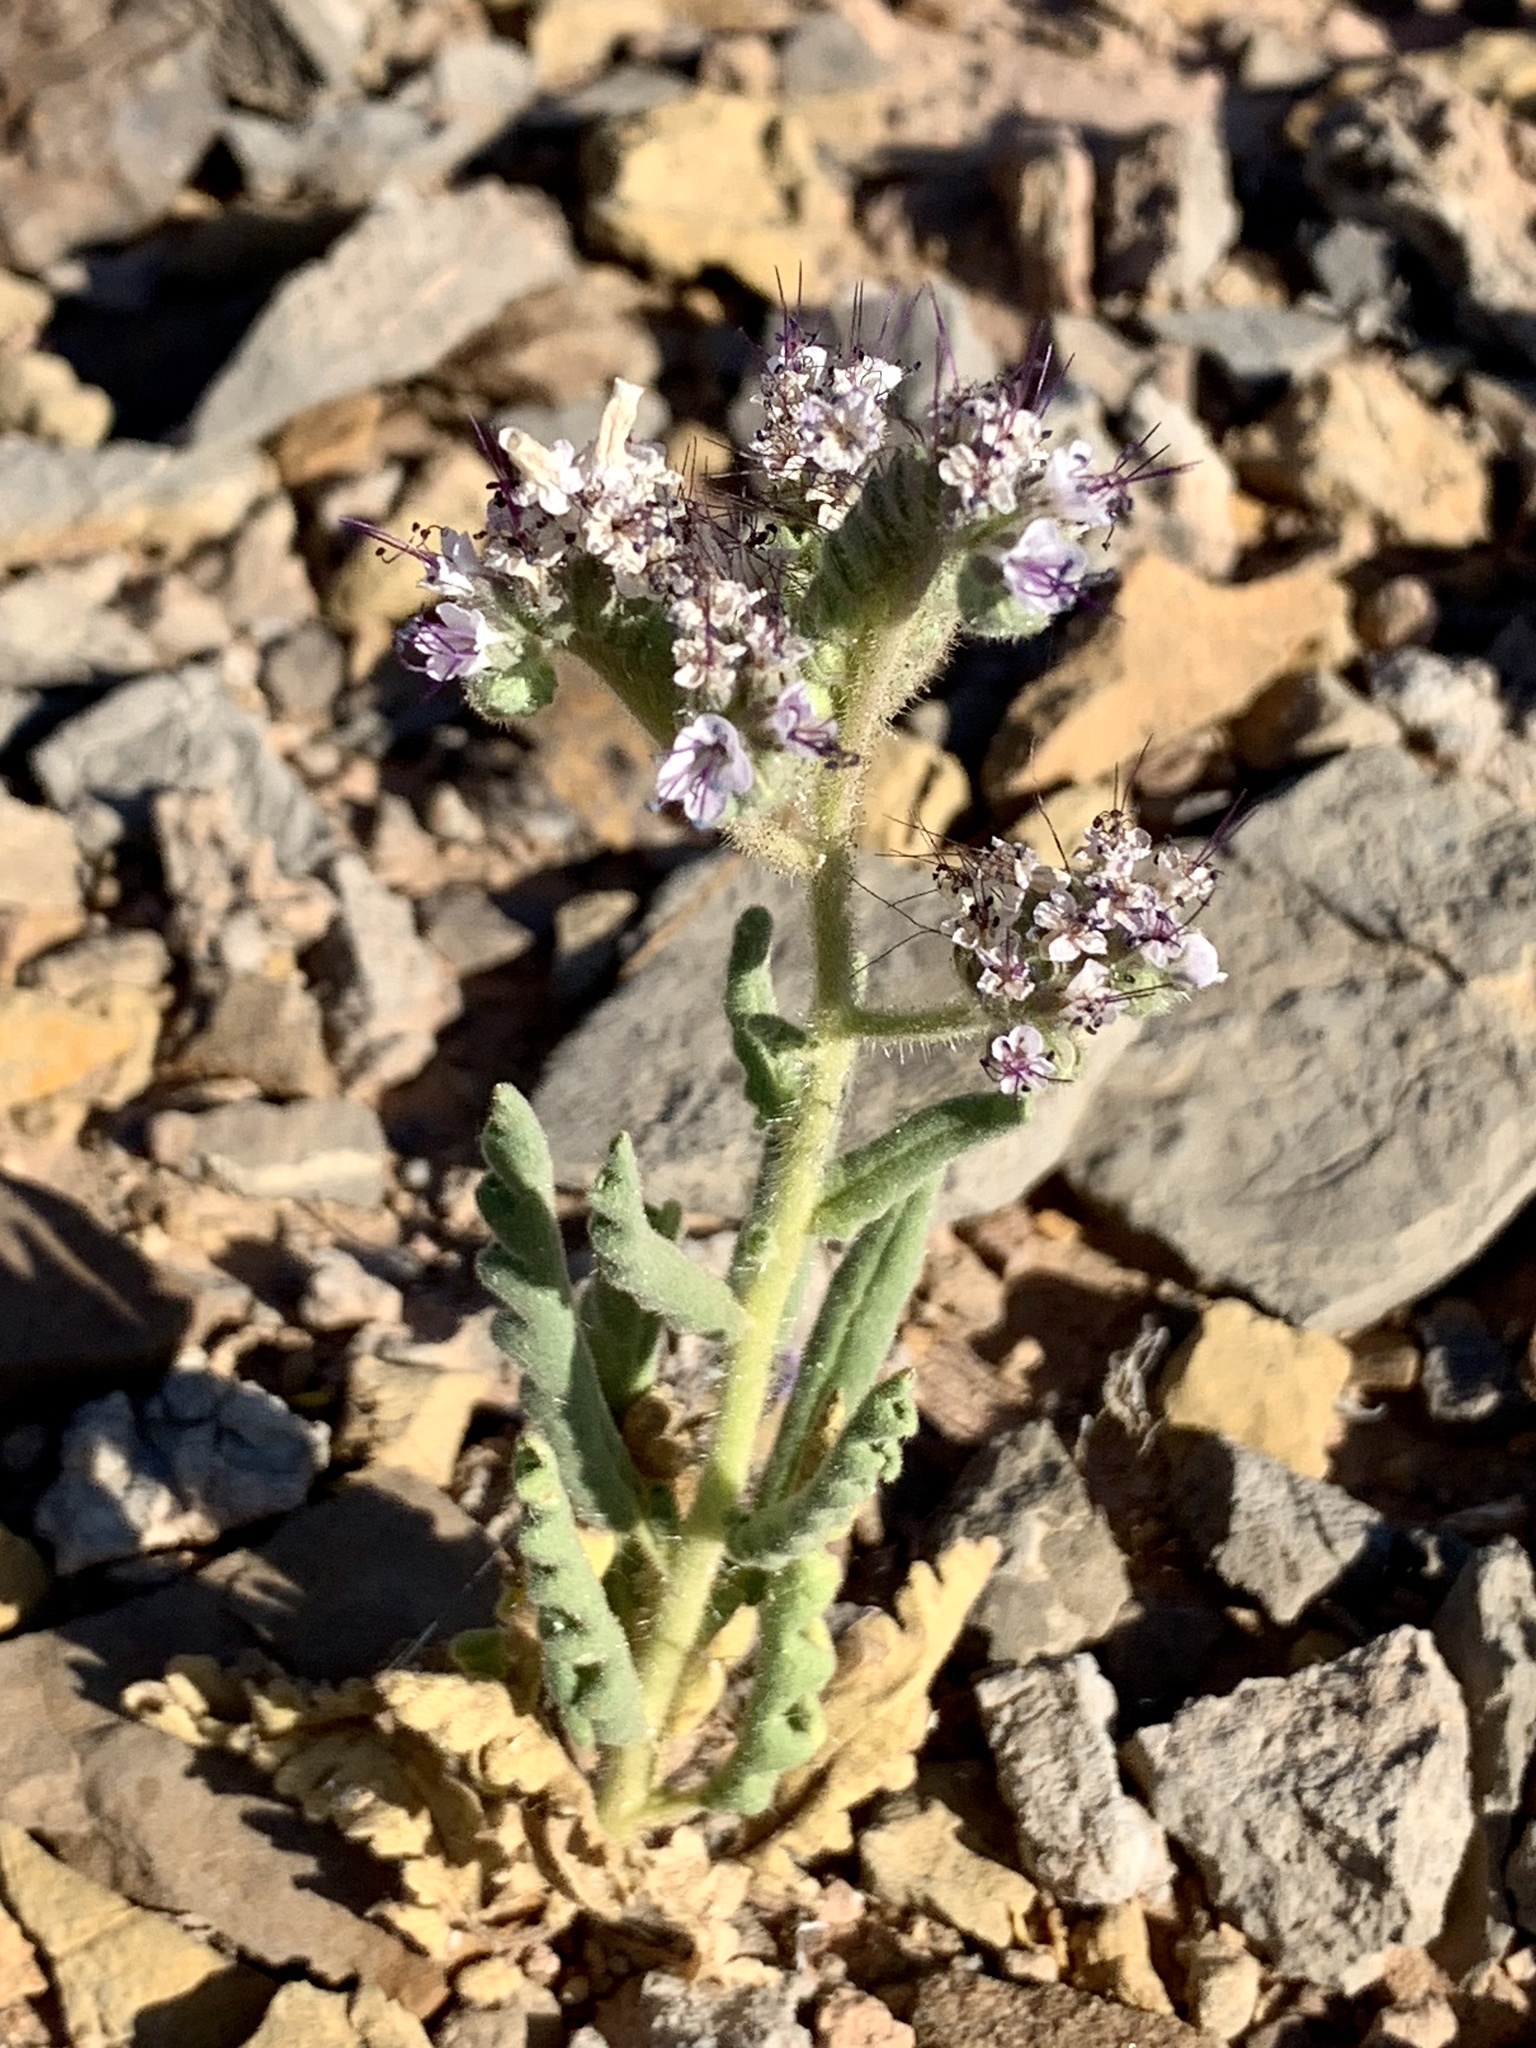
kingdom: Plantae
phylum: Tracheophyta
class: Magnoliopsida
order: Boraginales
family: Hydrophyllaceae
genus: Phacelia
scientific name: Phacelia integrifolia
